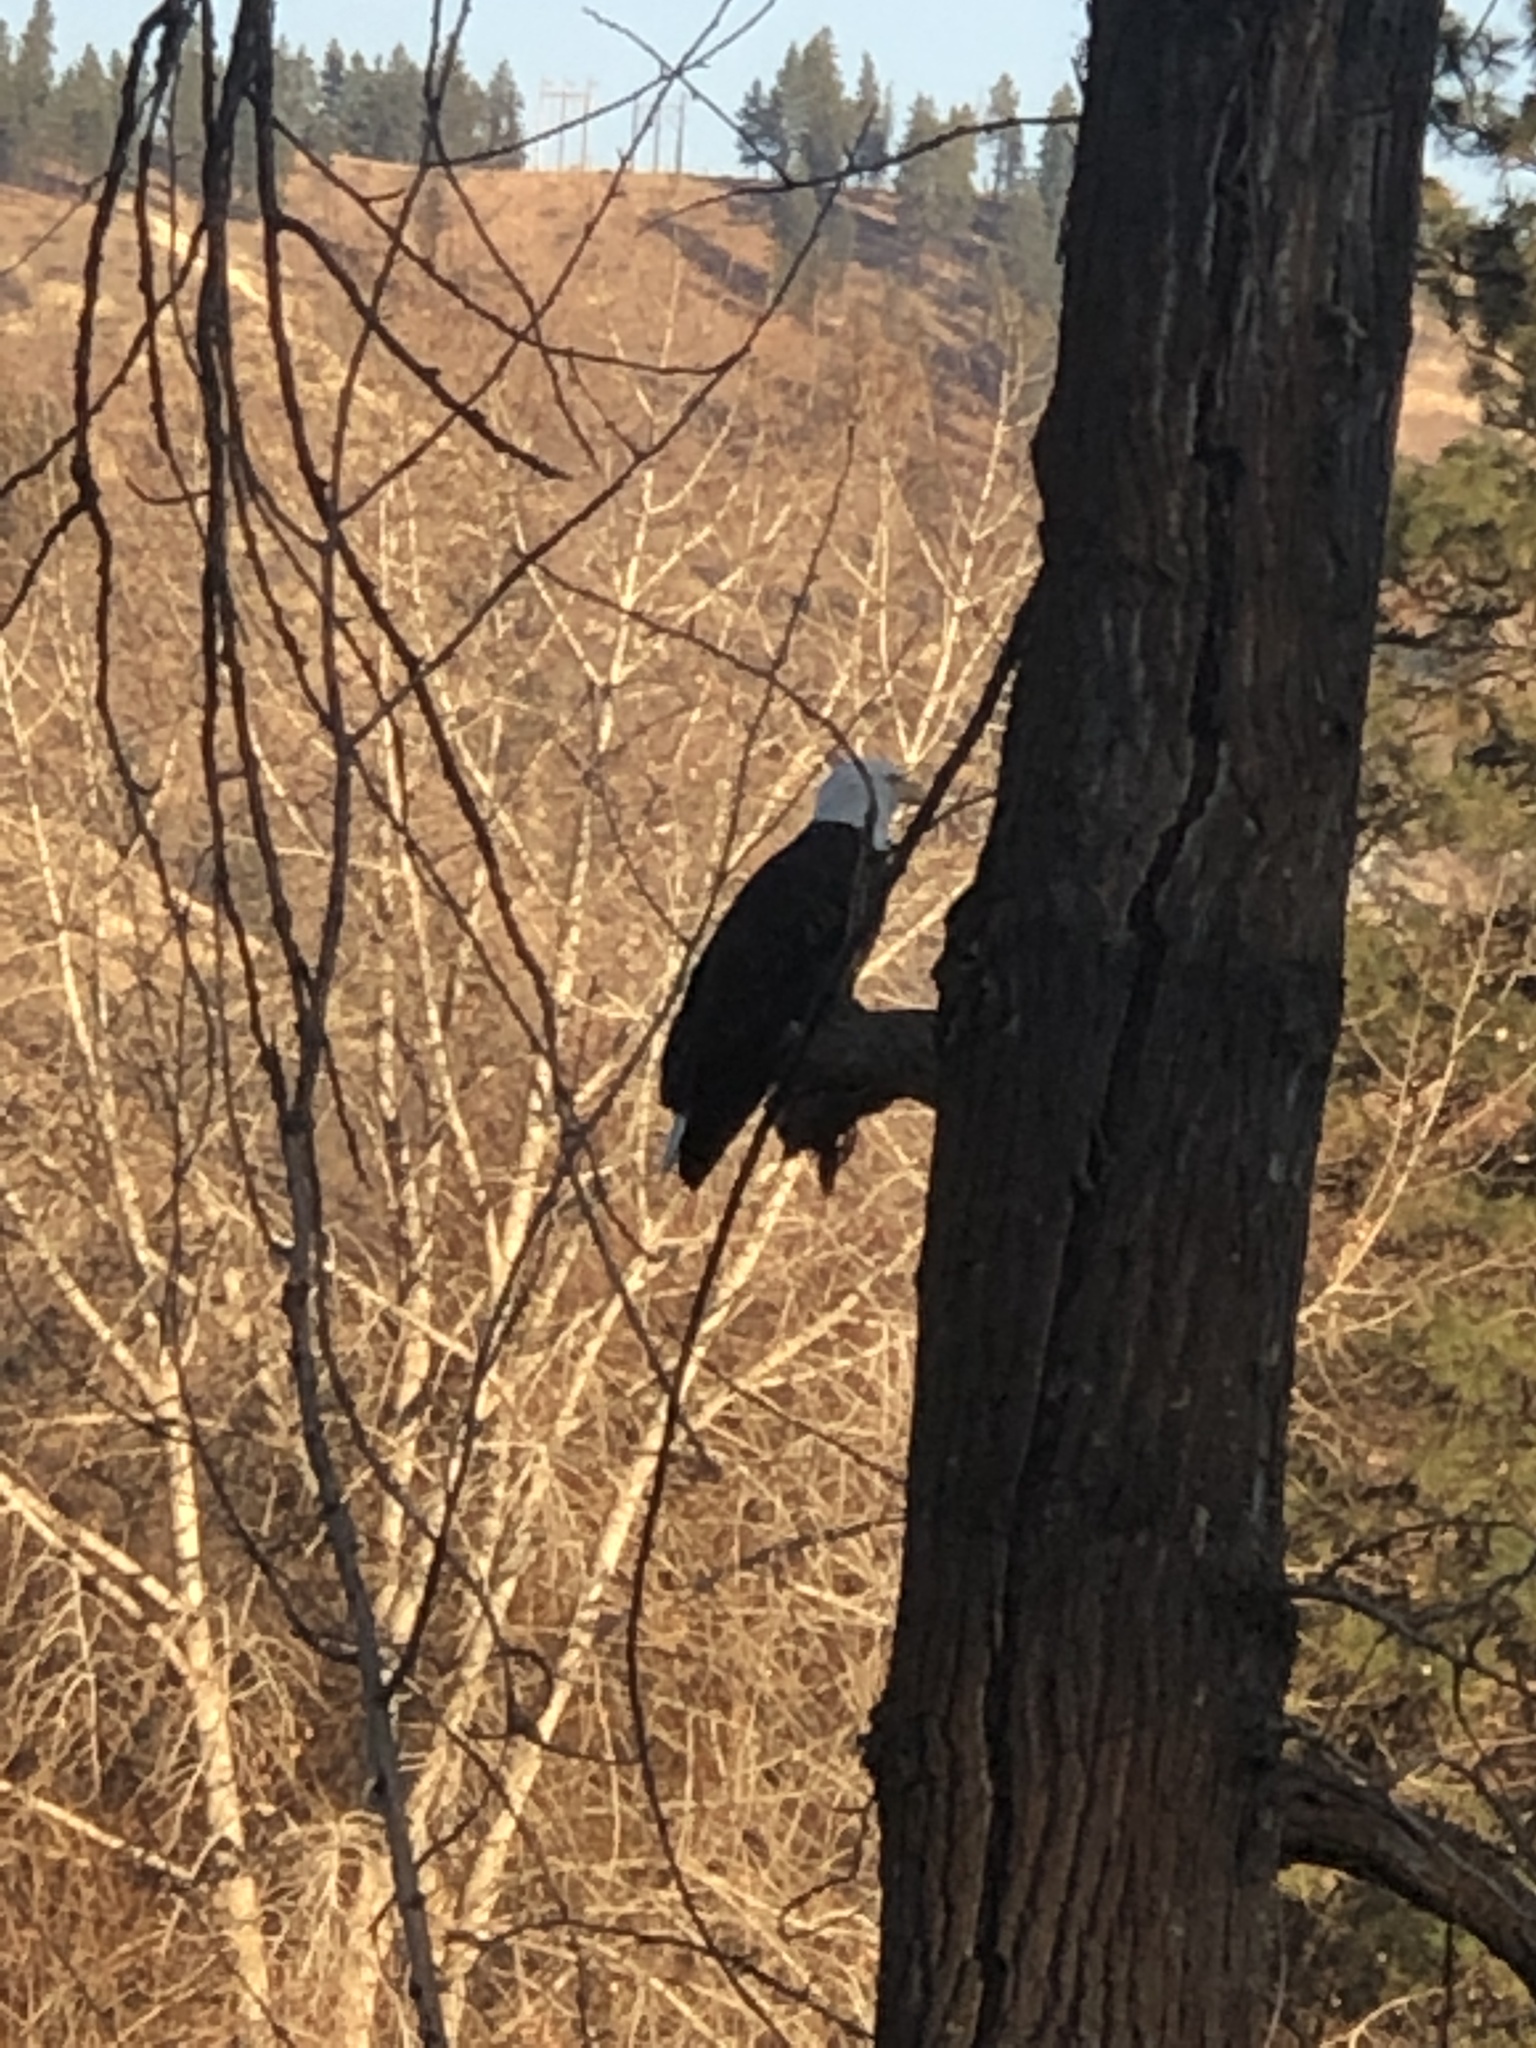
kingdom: Animalia
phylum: Chordata
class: Aves
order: Accipitriformes
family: Accipitridae
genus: Haliaeetus
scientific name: Haliaeetus leucocephalus
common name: Bald eagle
